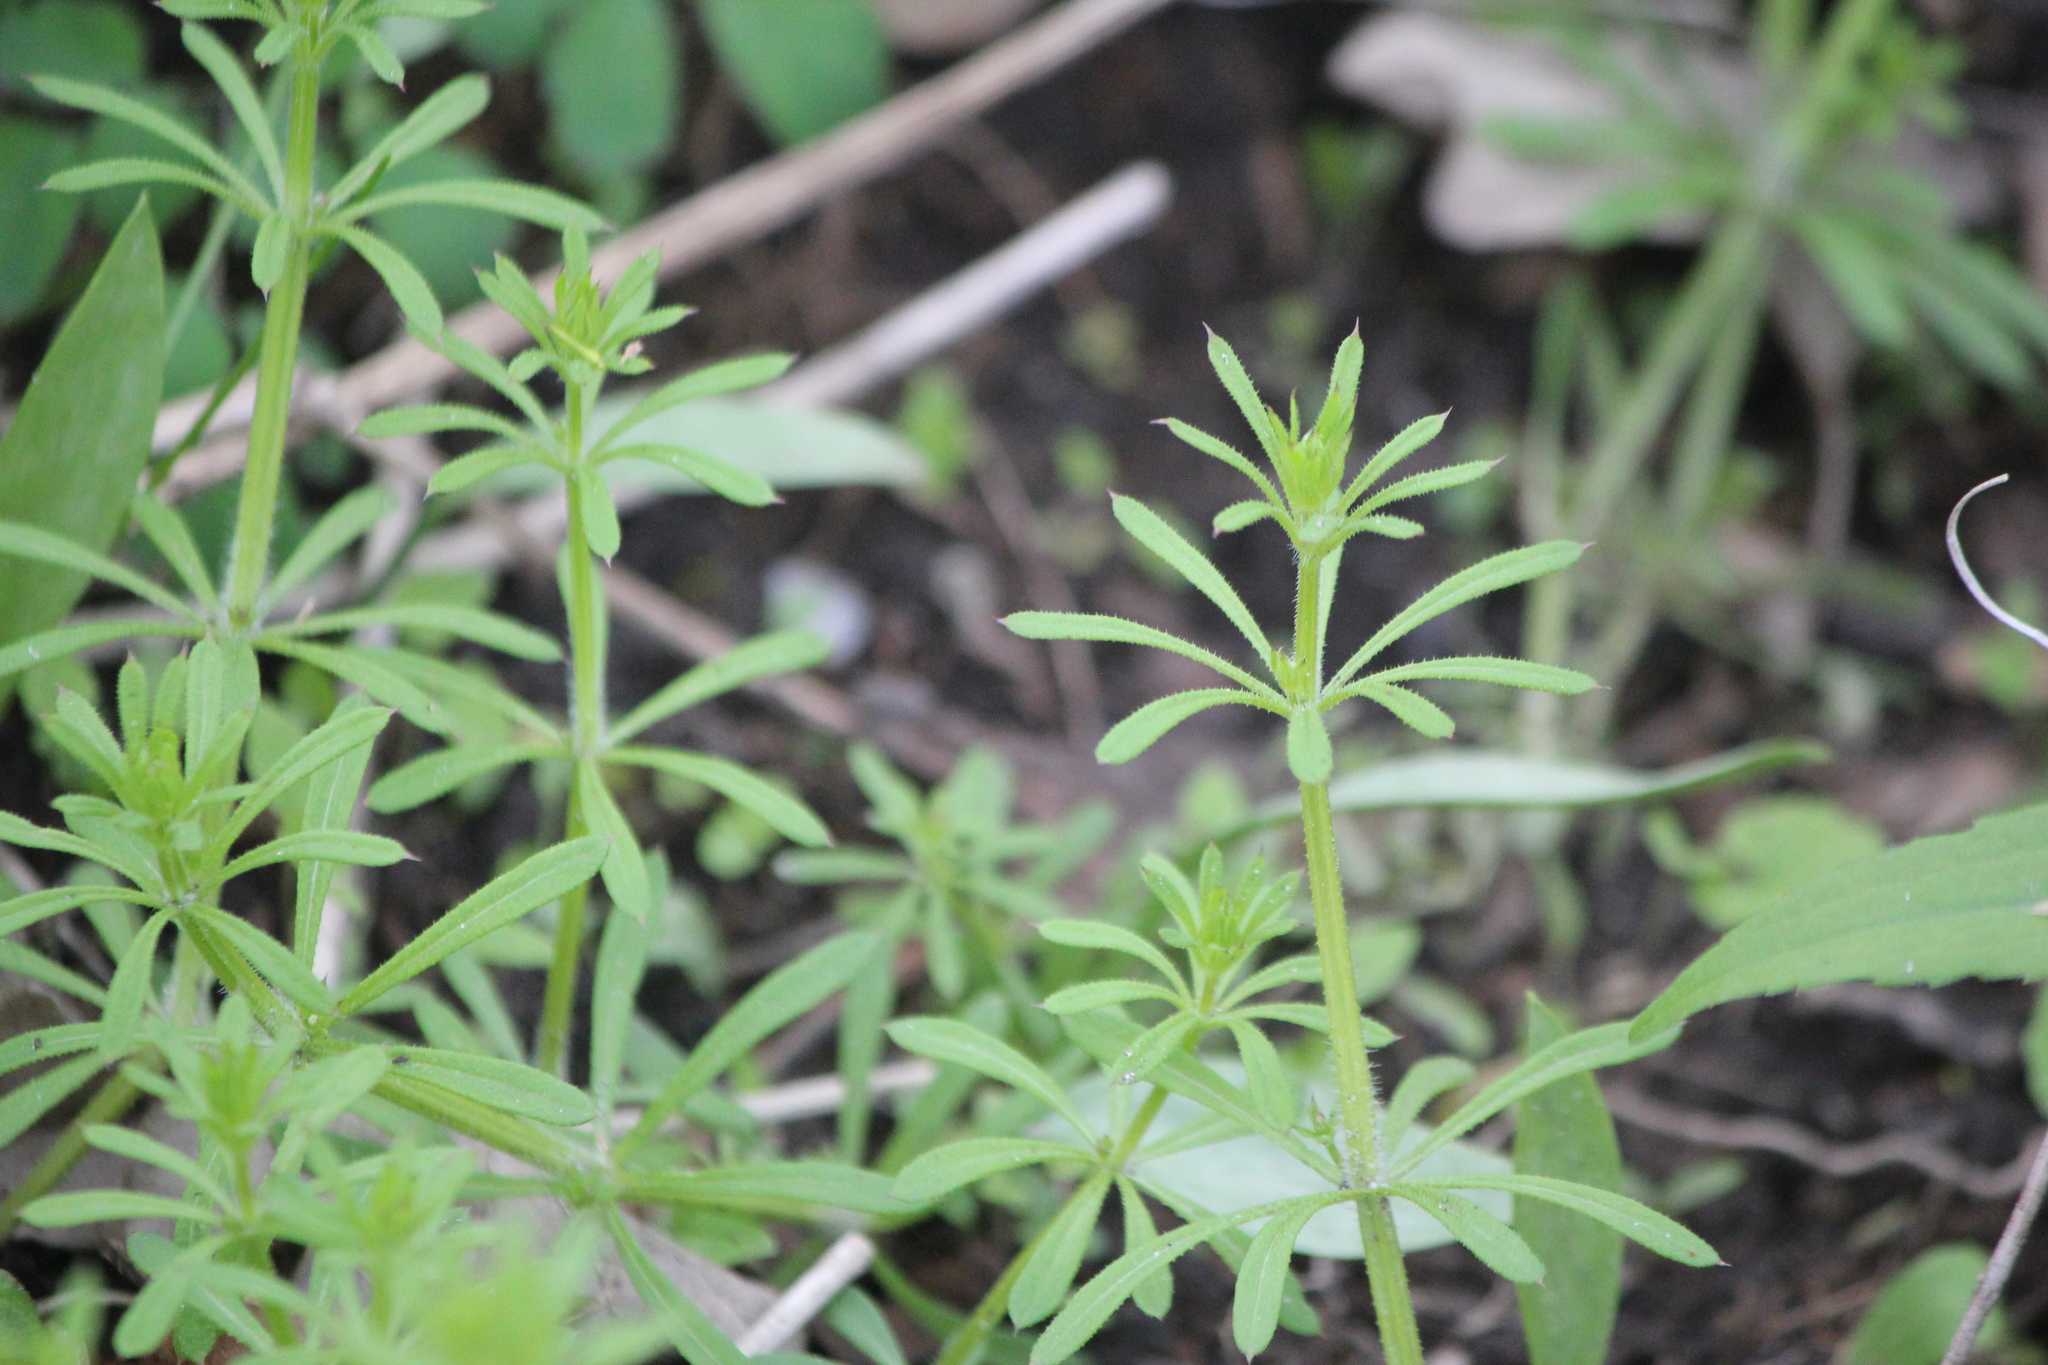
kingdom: Plantae
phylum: Tracheophyta
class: Magnoliopsida
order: Gentianales
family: Rubiaceae
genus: Galium
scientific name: Galium aparine
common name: Cleavers
